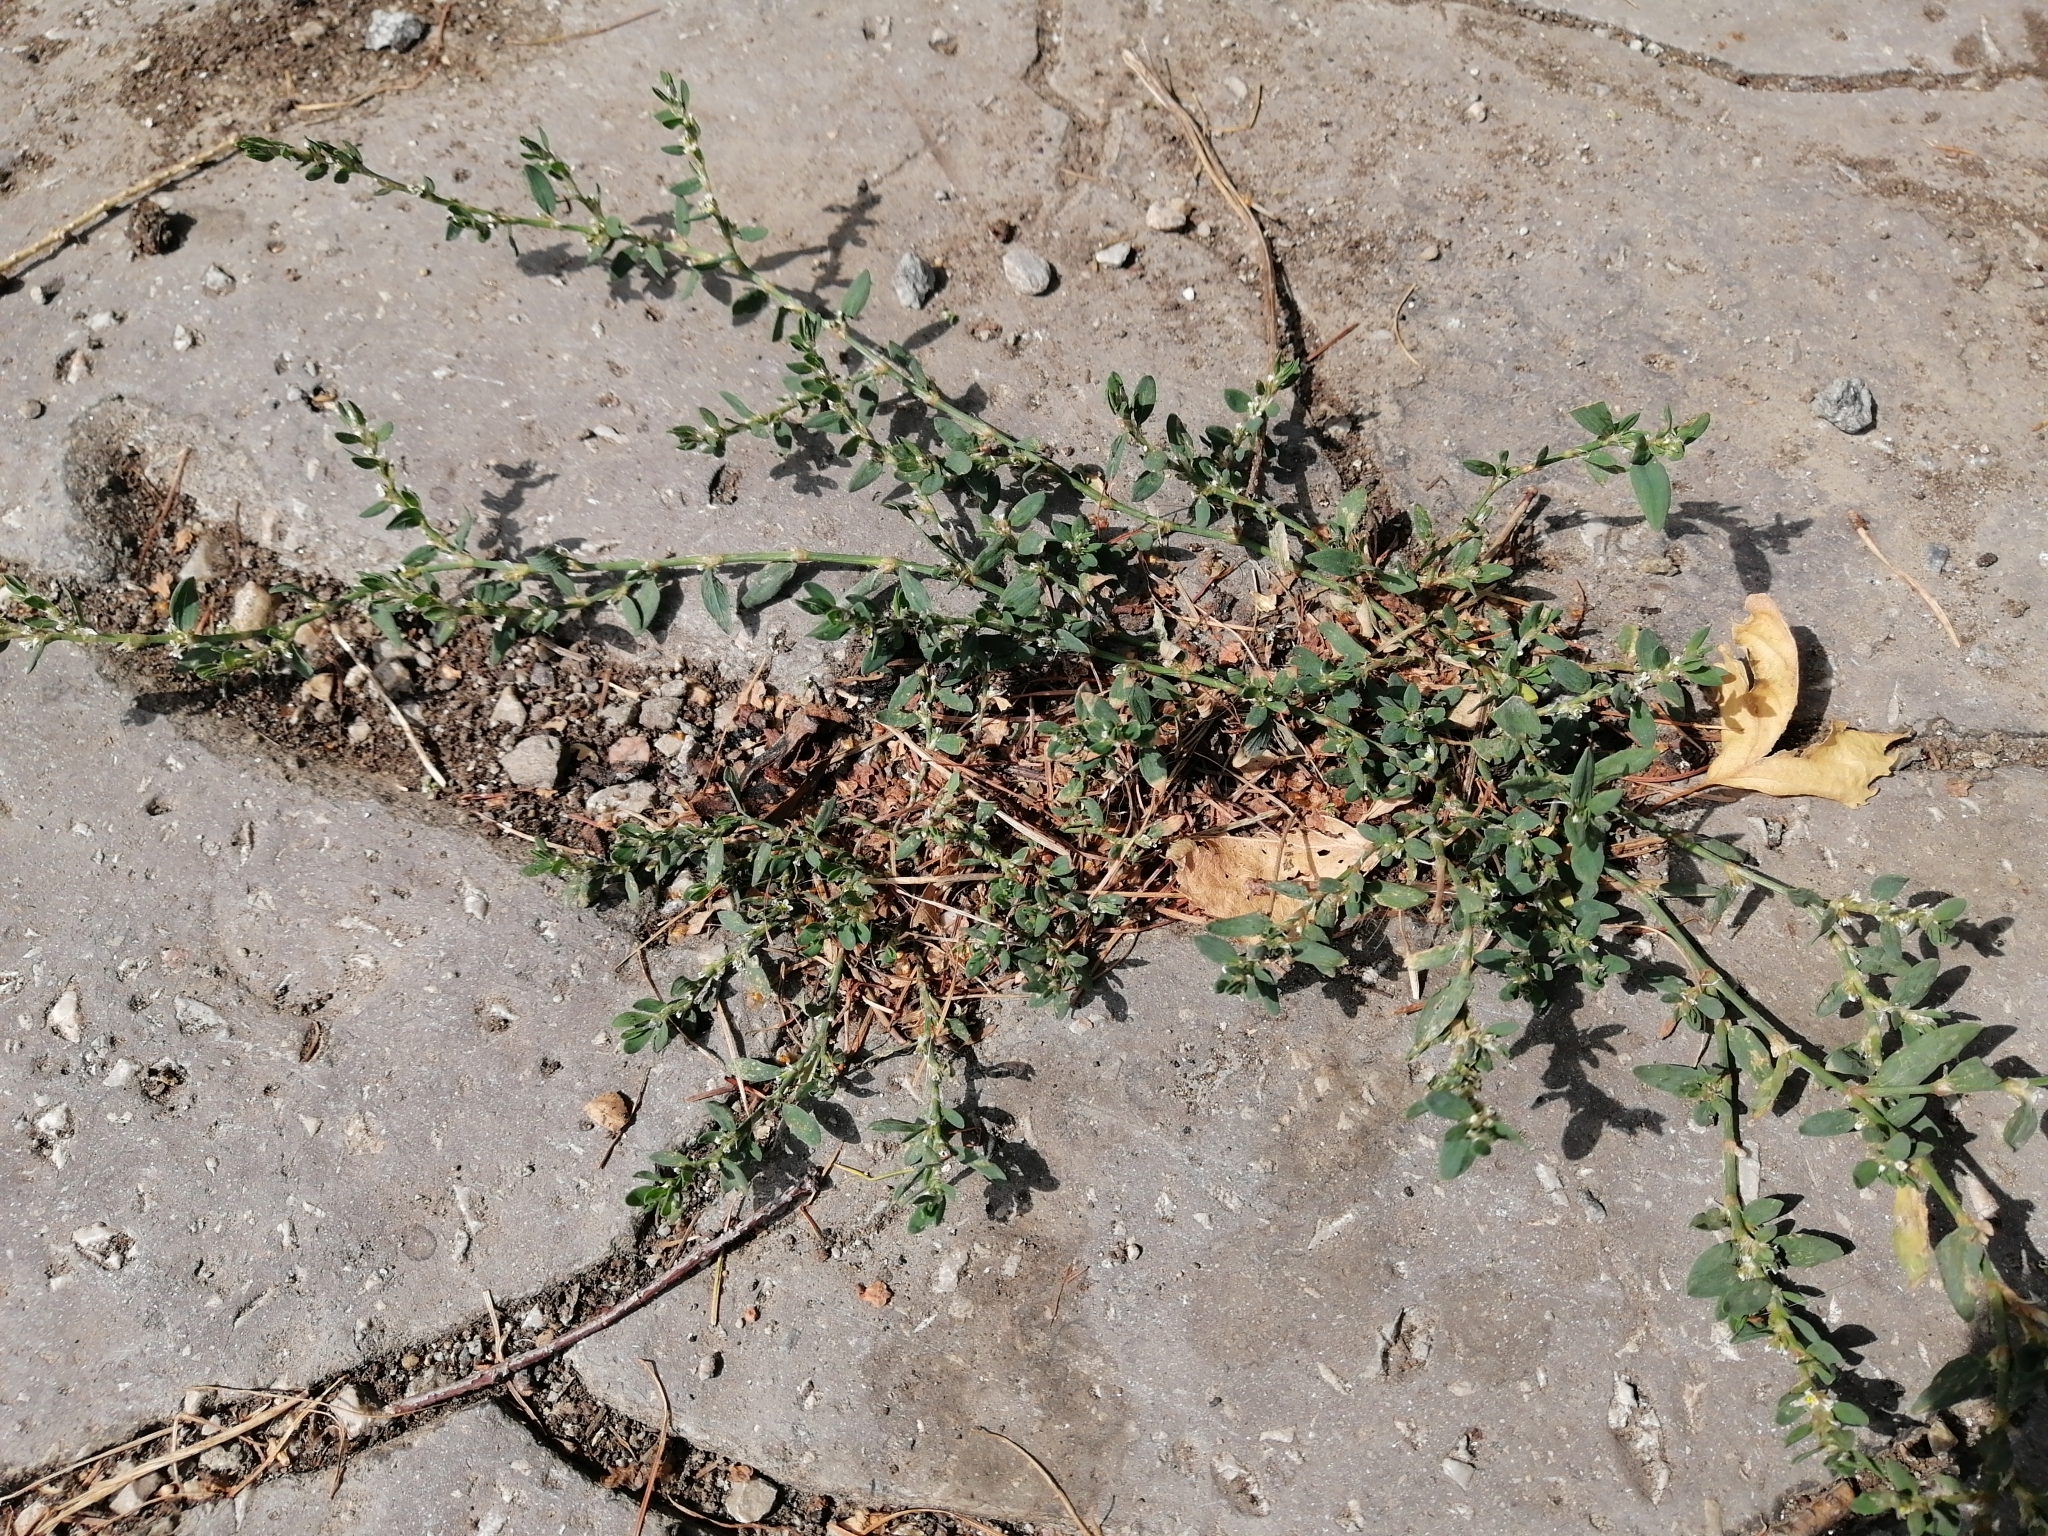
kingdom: Plantae
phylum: Tracheophyta
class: Magnoliopsida
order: Caryophyllales
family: Polygonaceae
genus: Polygonum
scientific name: Polygonum aviculare
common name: Prostrate knotweed
